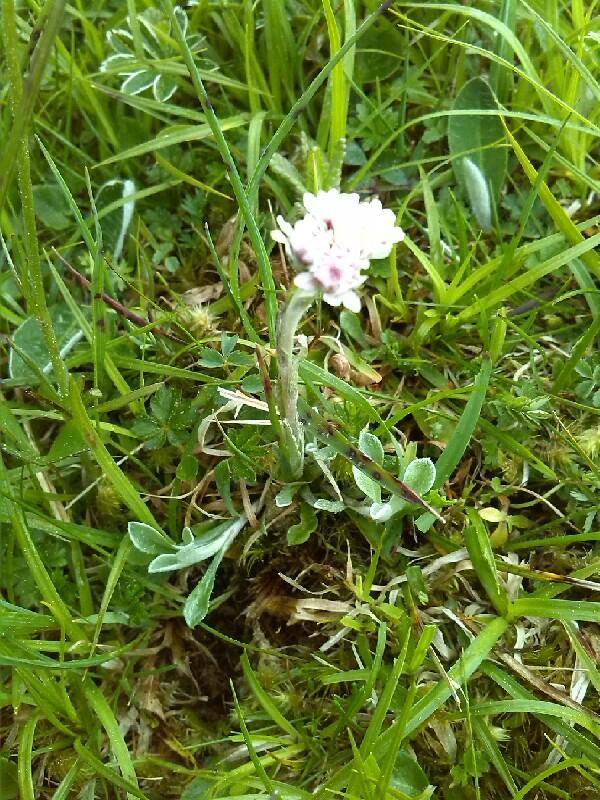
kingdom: Plantae
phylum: Tracheophyta
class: Magnoliopsida
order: Asterales
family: Asteraceae
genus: Antennaria
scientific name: Antennaria dioica
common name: Mountain everlasting
